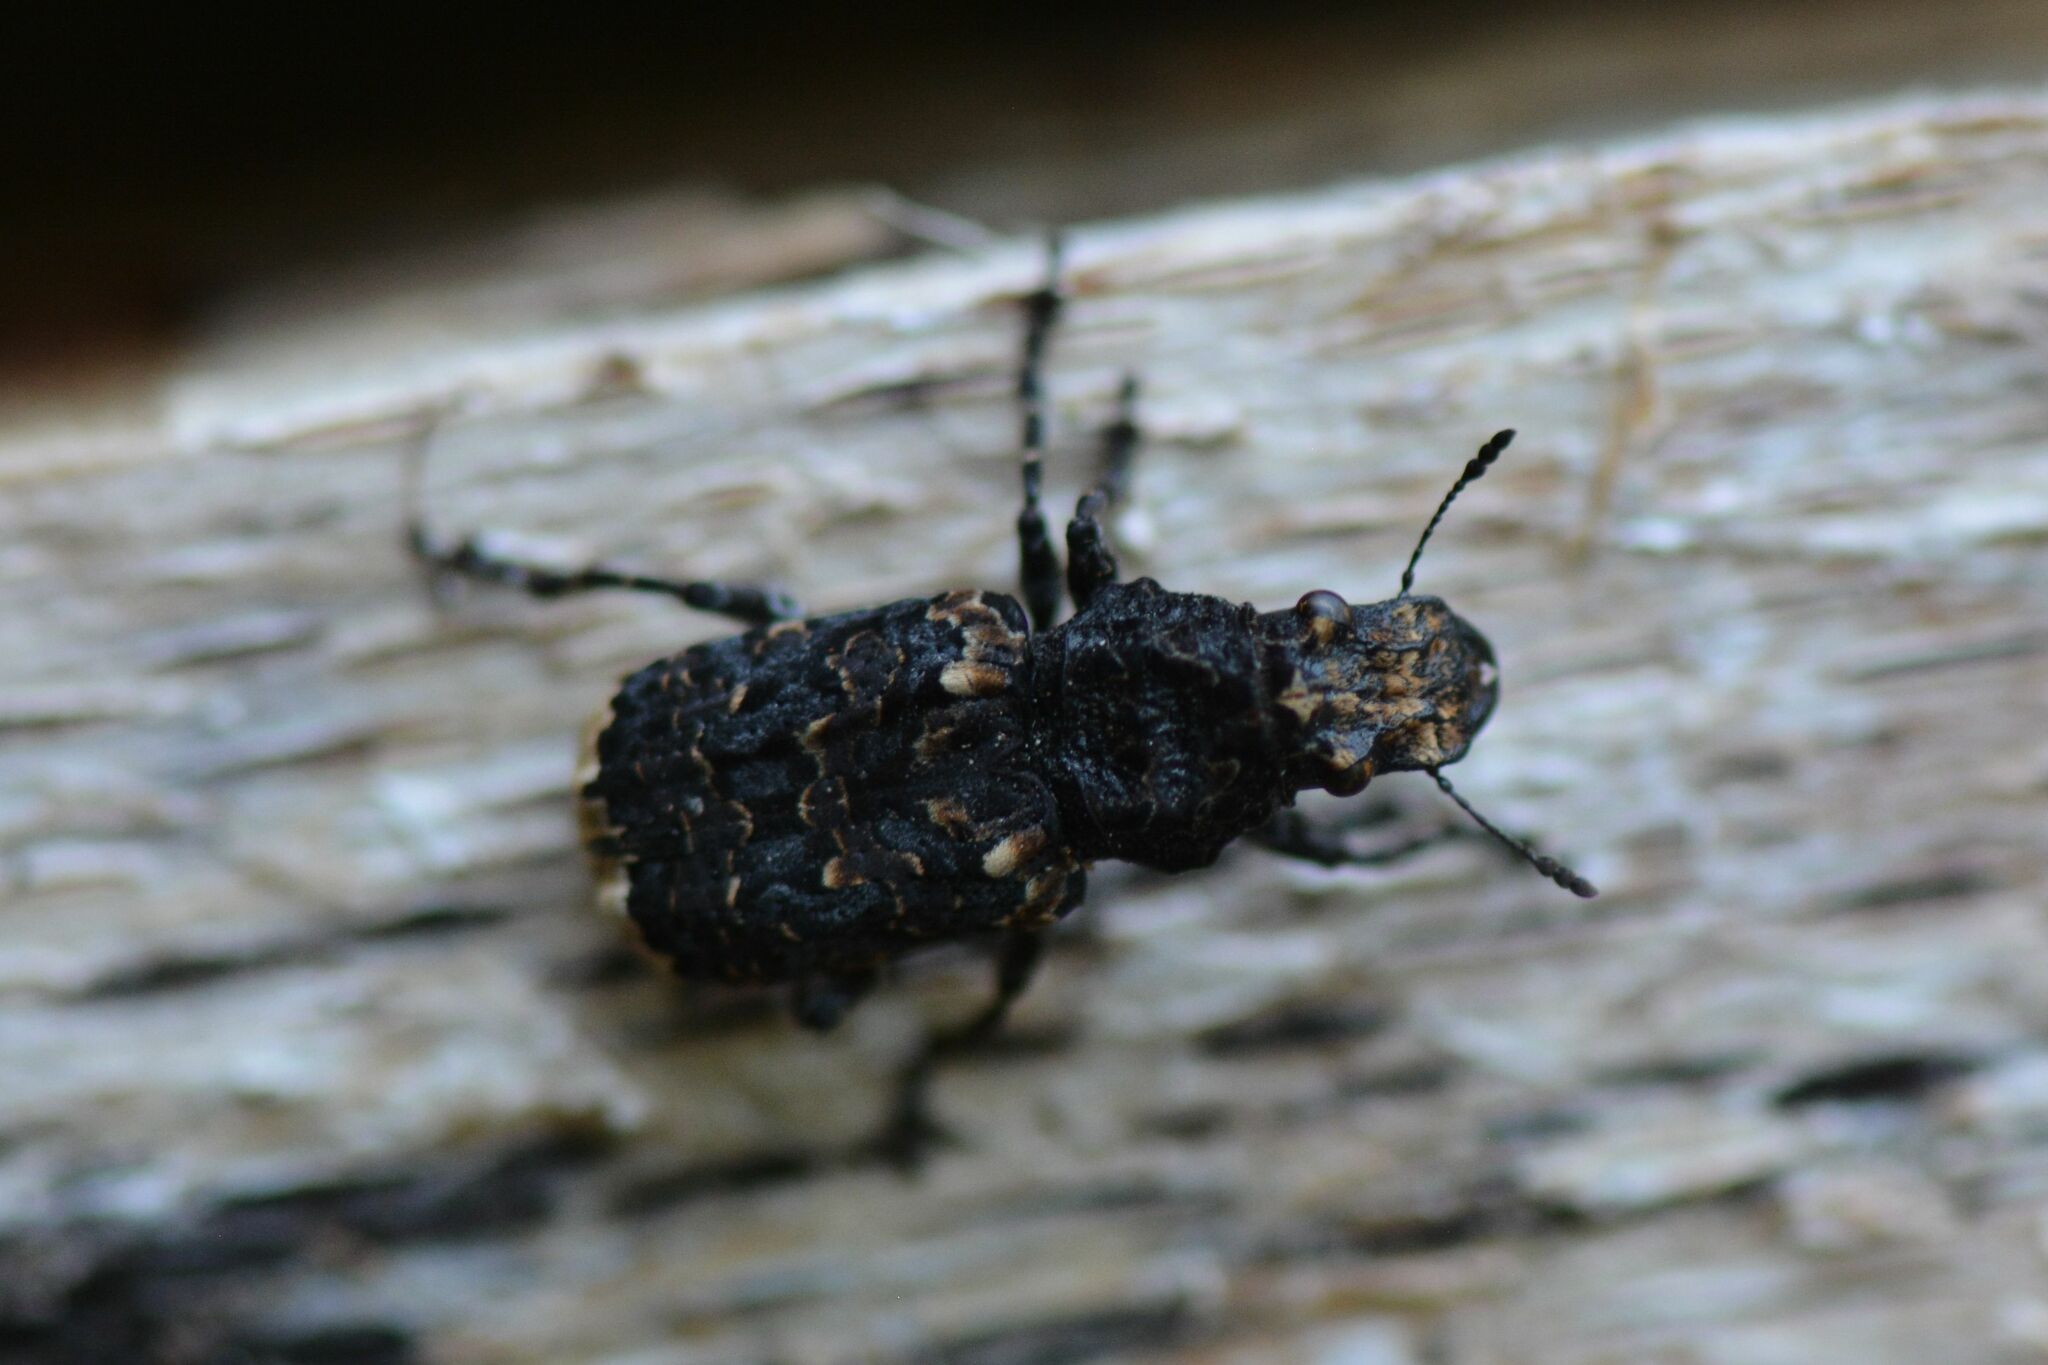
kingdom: Animalia
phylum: Arthropoda
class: Insecta
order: Coleoptera
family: Anthribidae
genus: Platyrhinus
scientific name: Platyrhinus resinosus
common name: Cramp-ball fungus weevil
